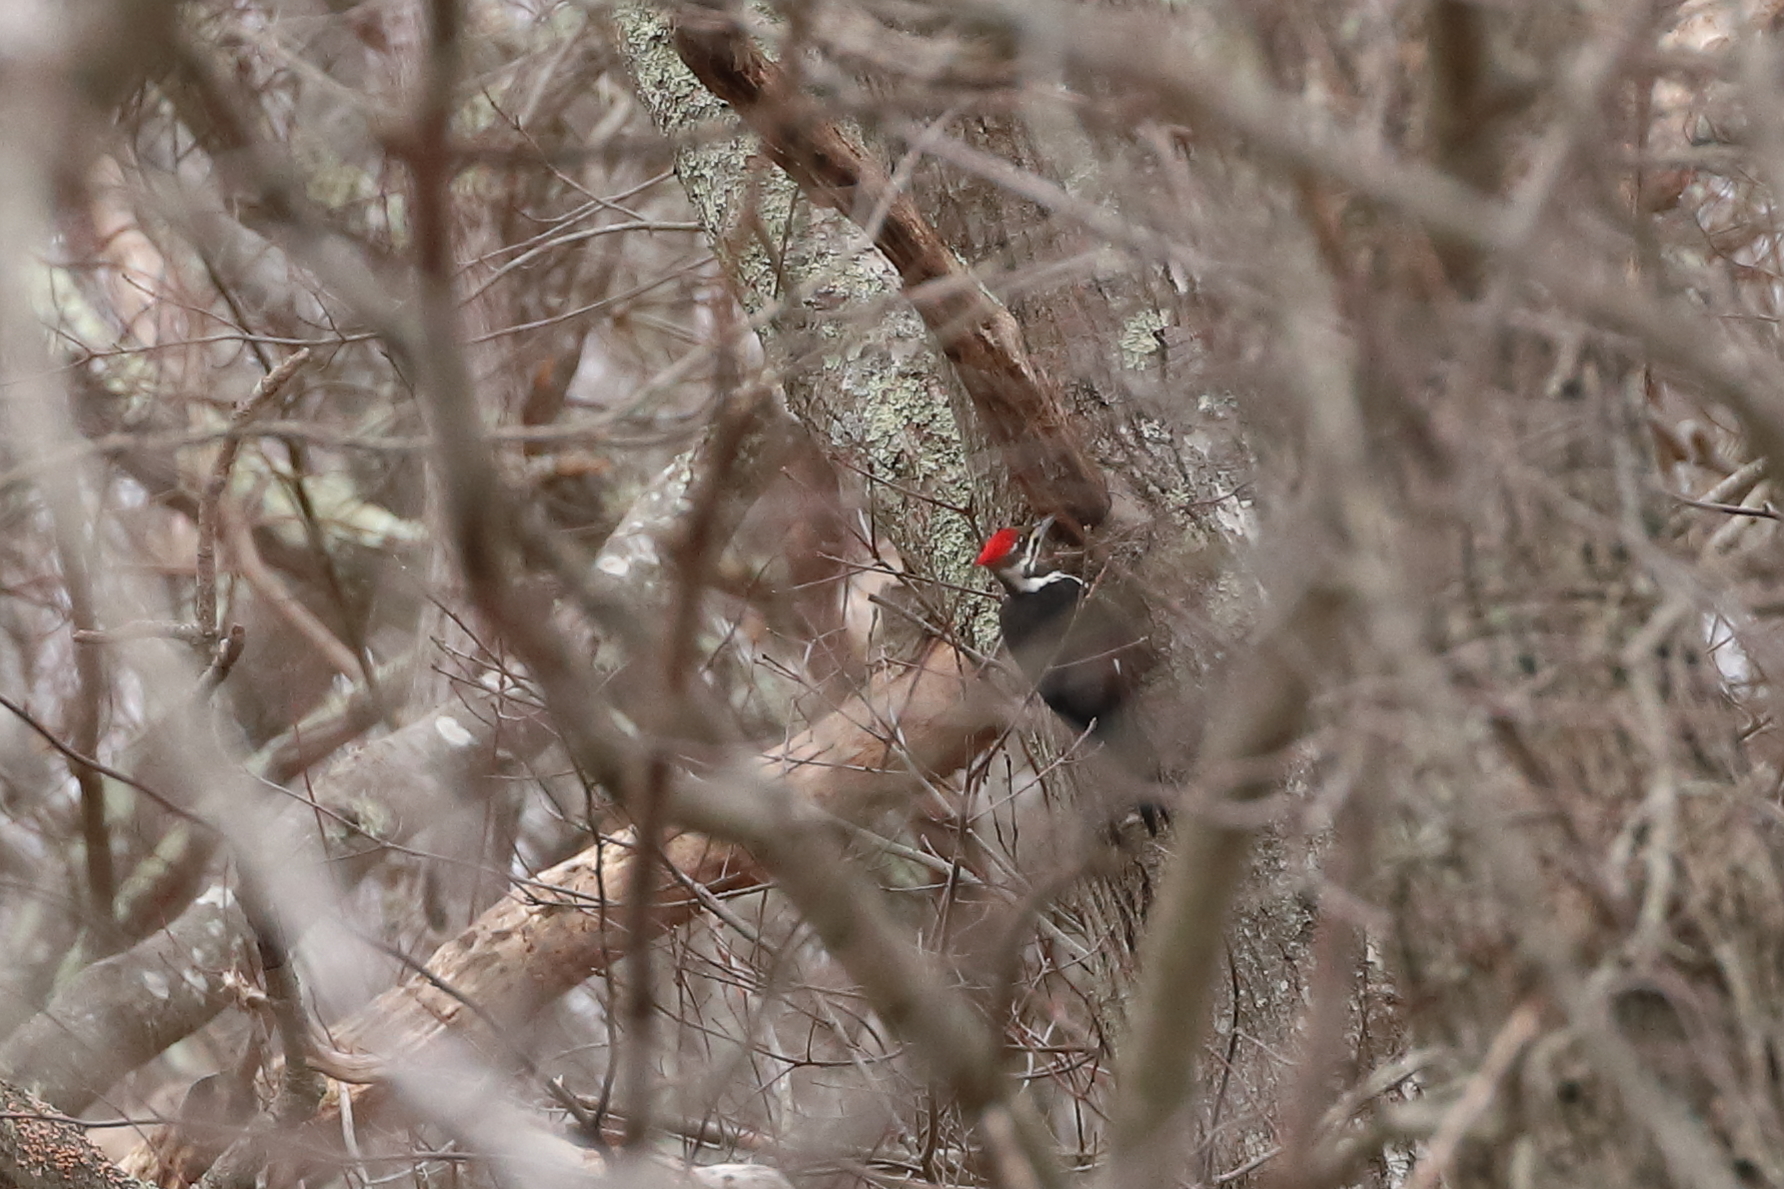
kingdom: Animalia
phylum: Chordata
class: Aves
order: Piciformes
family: Picidae
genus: Dryocopus
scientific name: Dryocopus pileatus
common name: Pileated woodpecker
